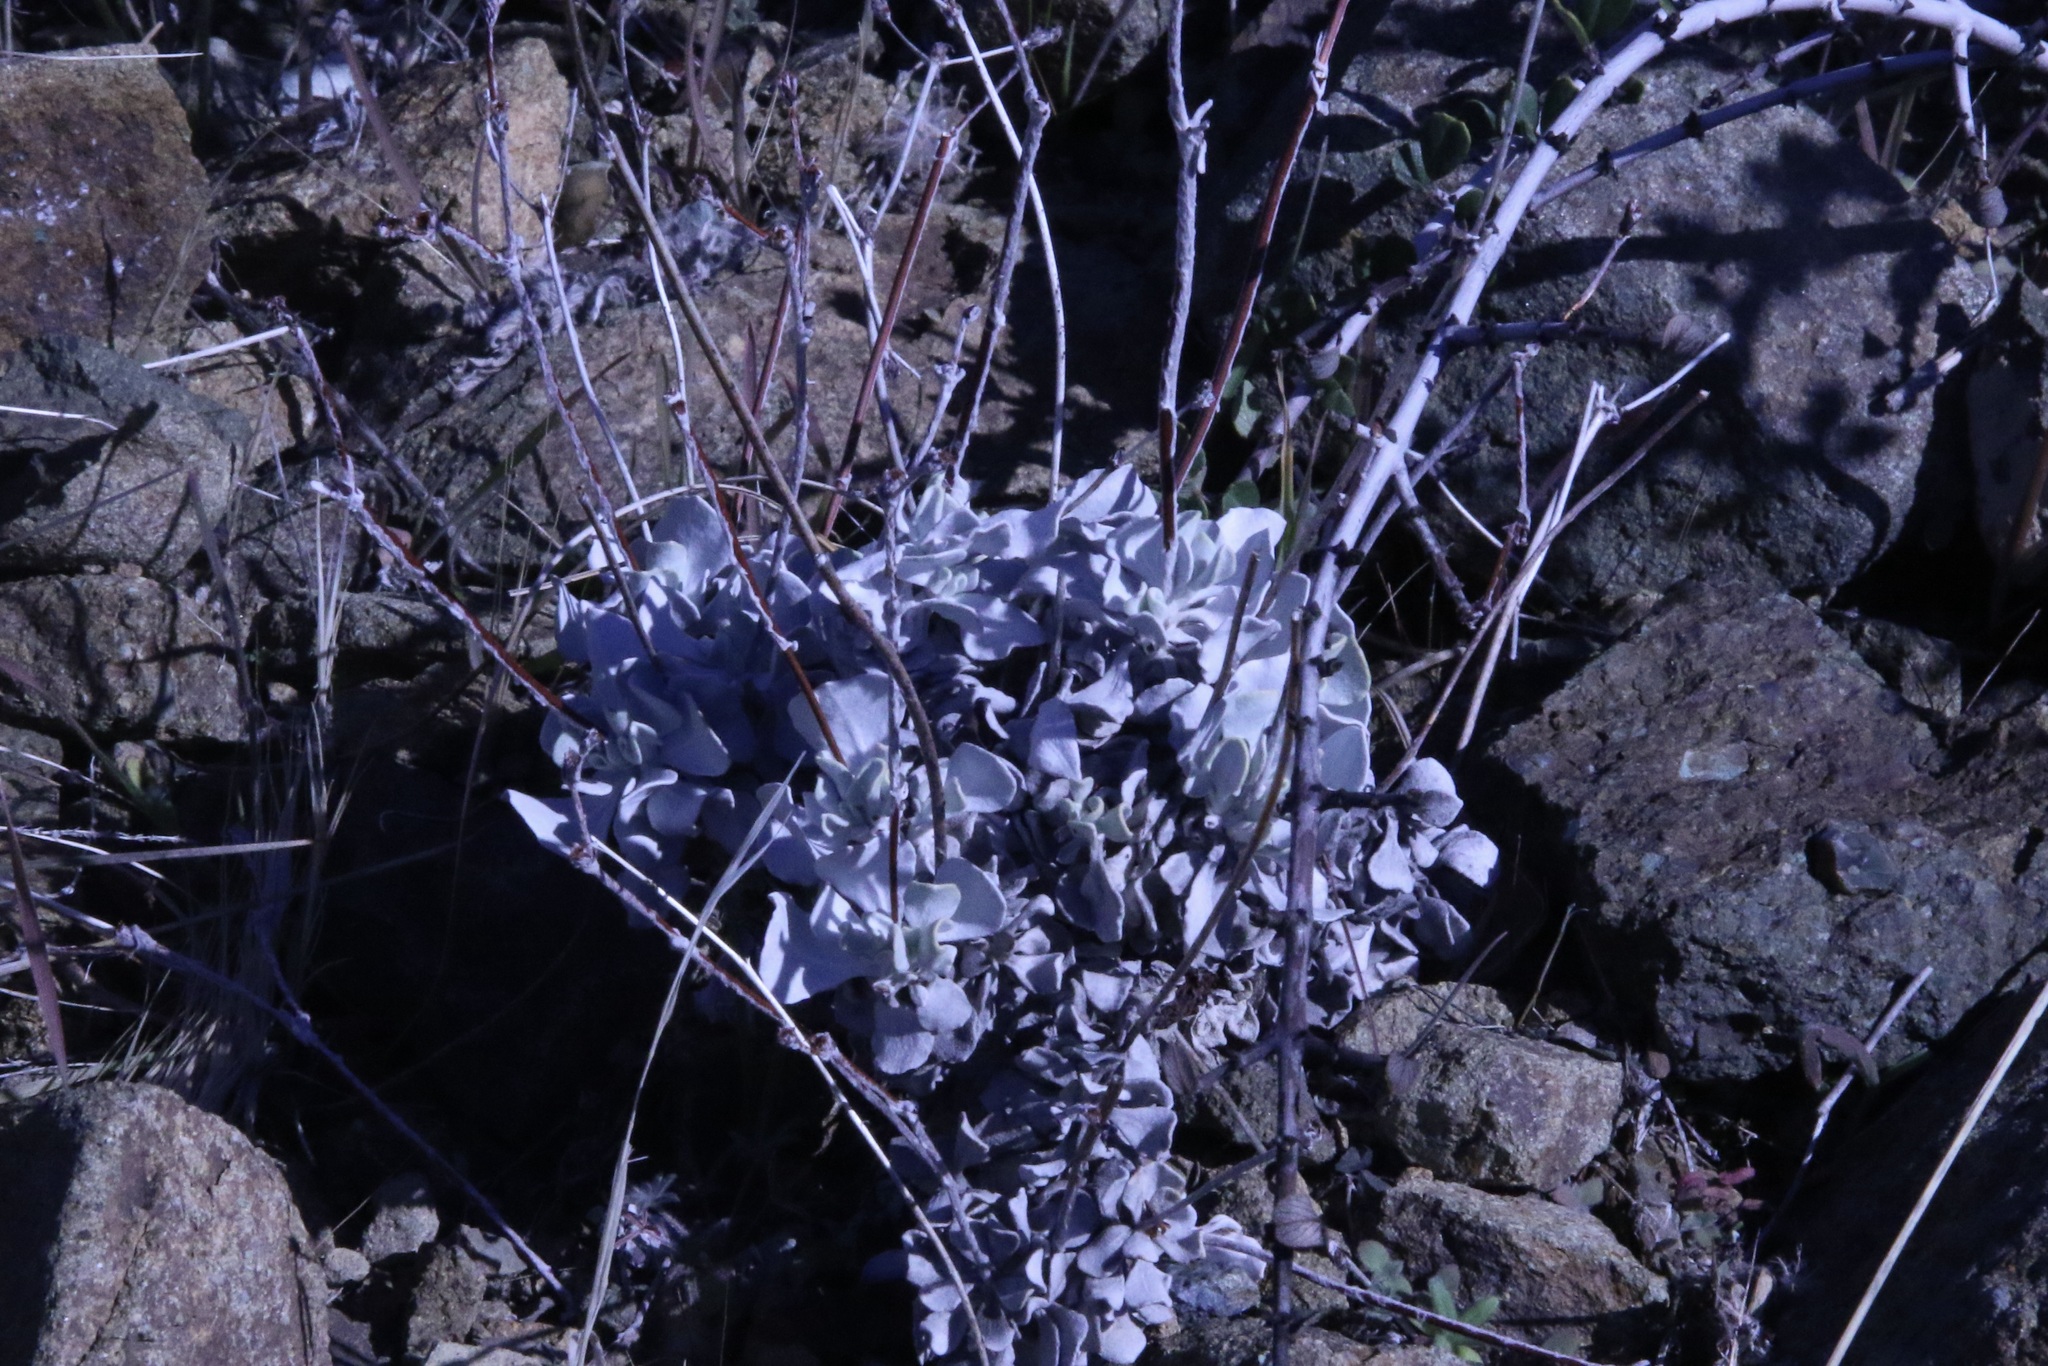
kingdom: Plantae
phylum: Tracheophyta
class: Magnoliopsida
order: Caryophyllales
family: Polygonaceae
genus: Eriogonum
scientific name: Eriogonum saxatile
